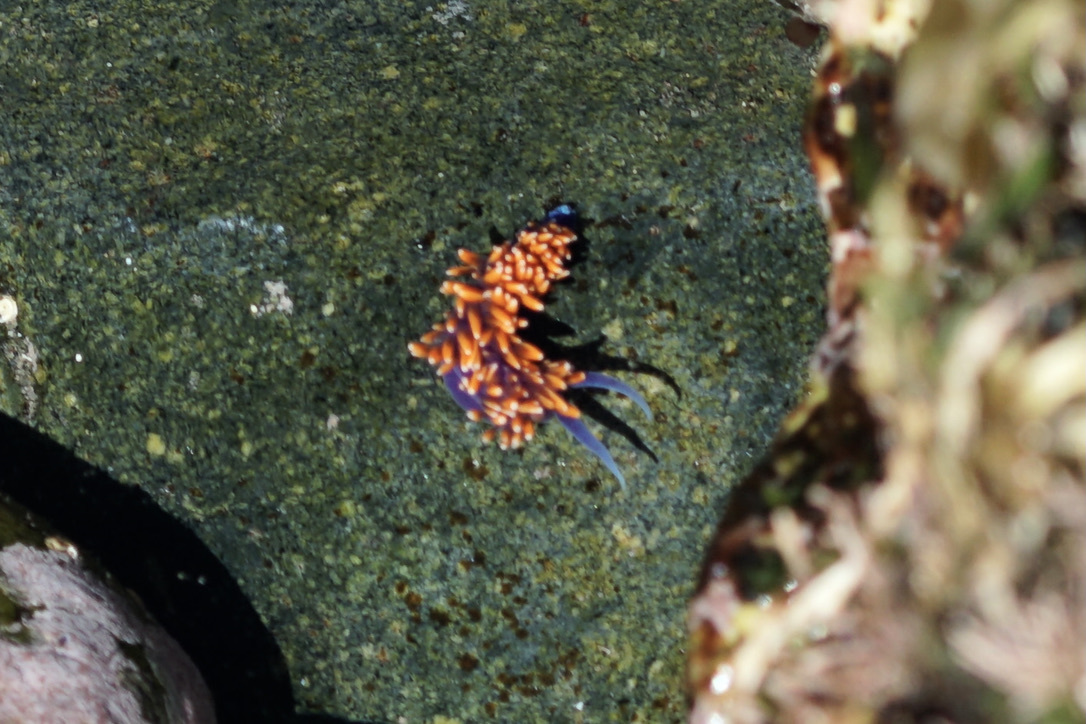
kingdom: Animalia
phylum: Mollusca
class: Gastropoda
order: Nudibranchia
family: Flabellinopsidae
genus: Flabellinopsis
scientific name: Flabellinopsis iodinea
